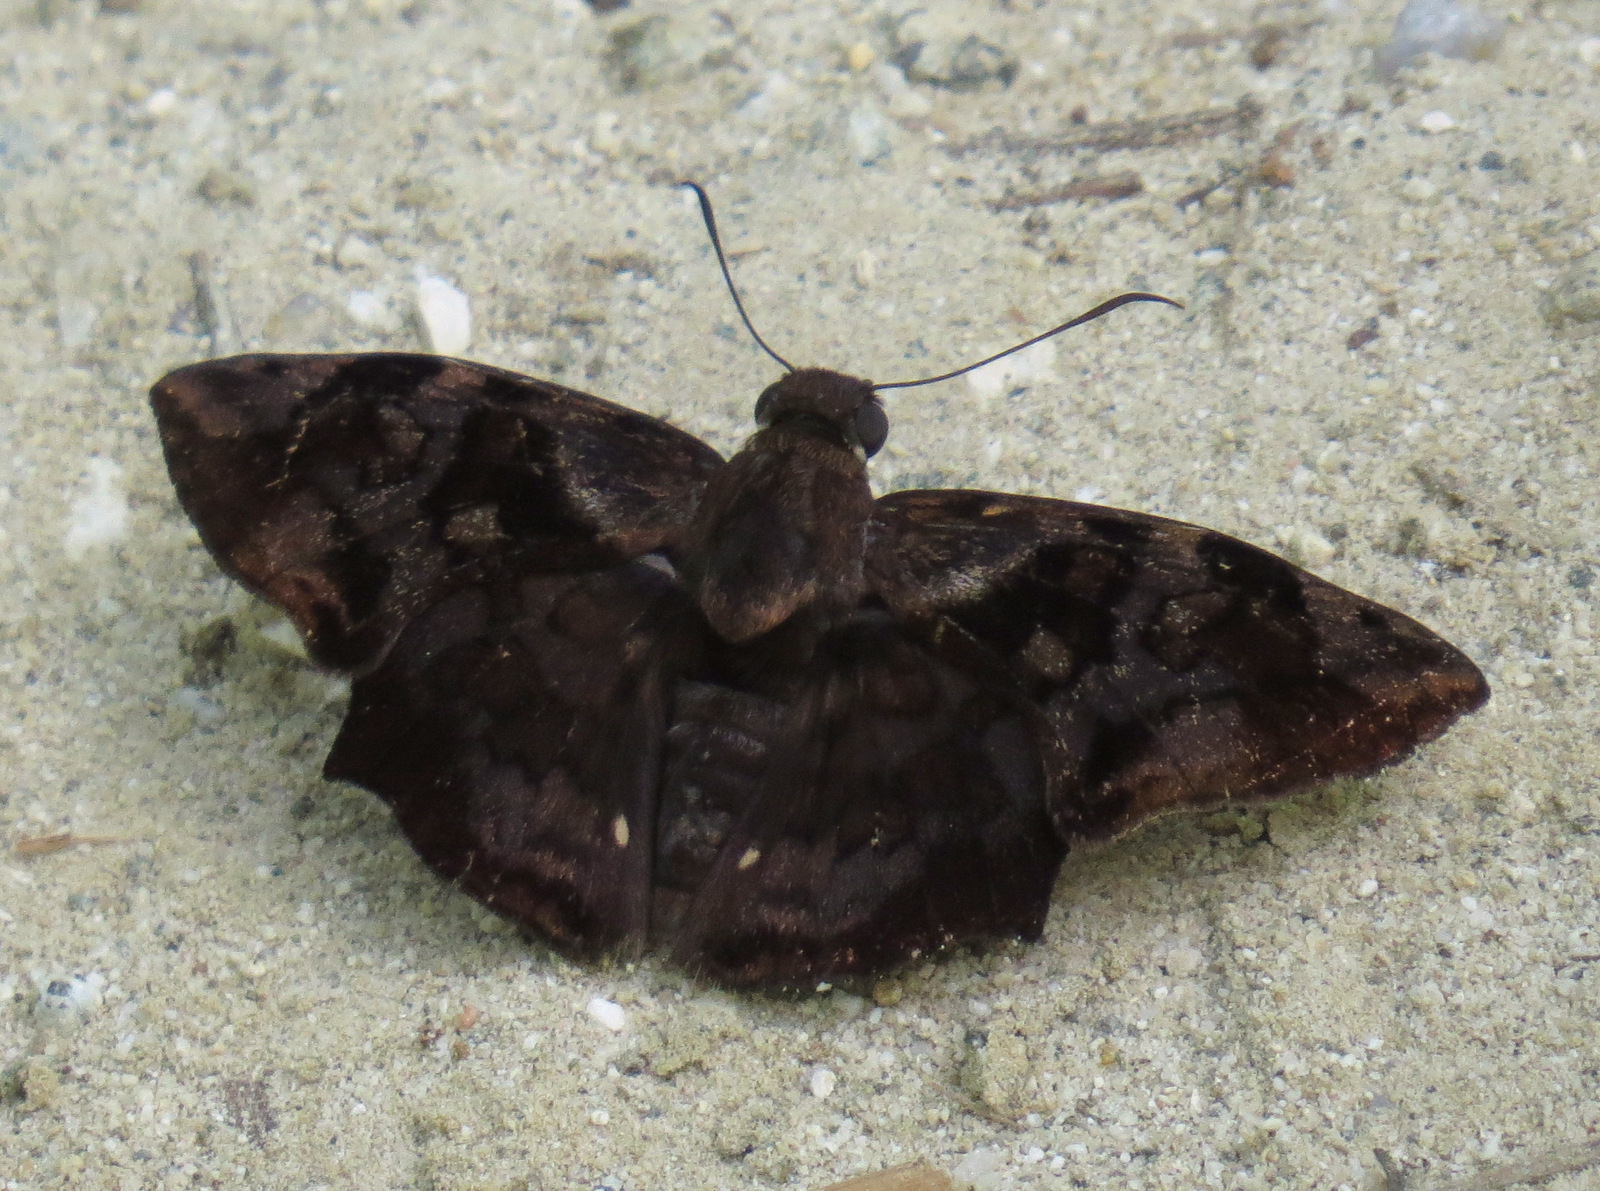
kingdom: Animalia
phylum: Arthropoda
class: Insecta
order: Lepidoptera
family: Hesperiidae
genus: Antigonus
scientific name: Antigonus nearchus
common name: Death-mask spurwing
